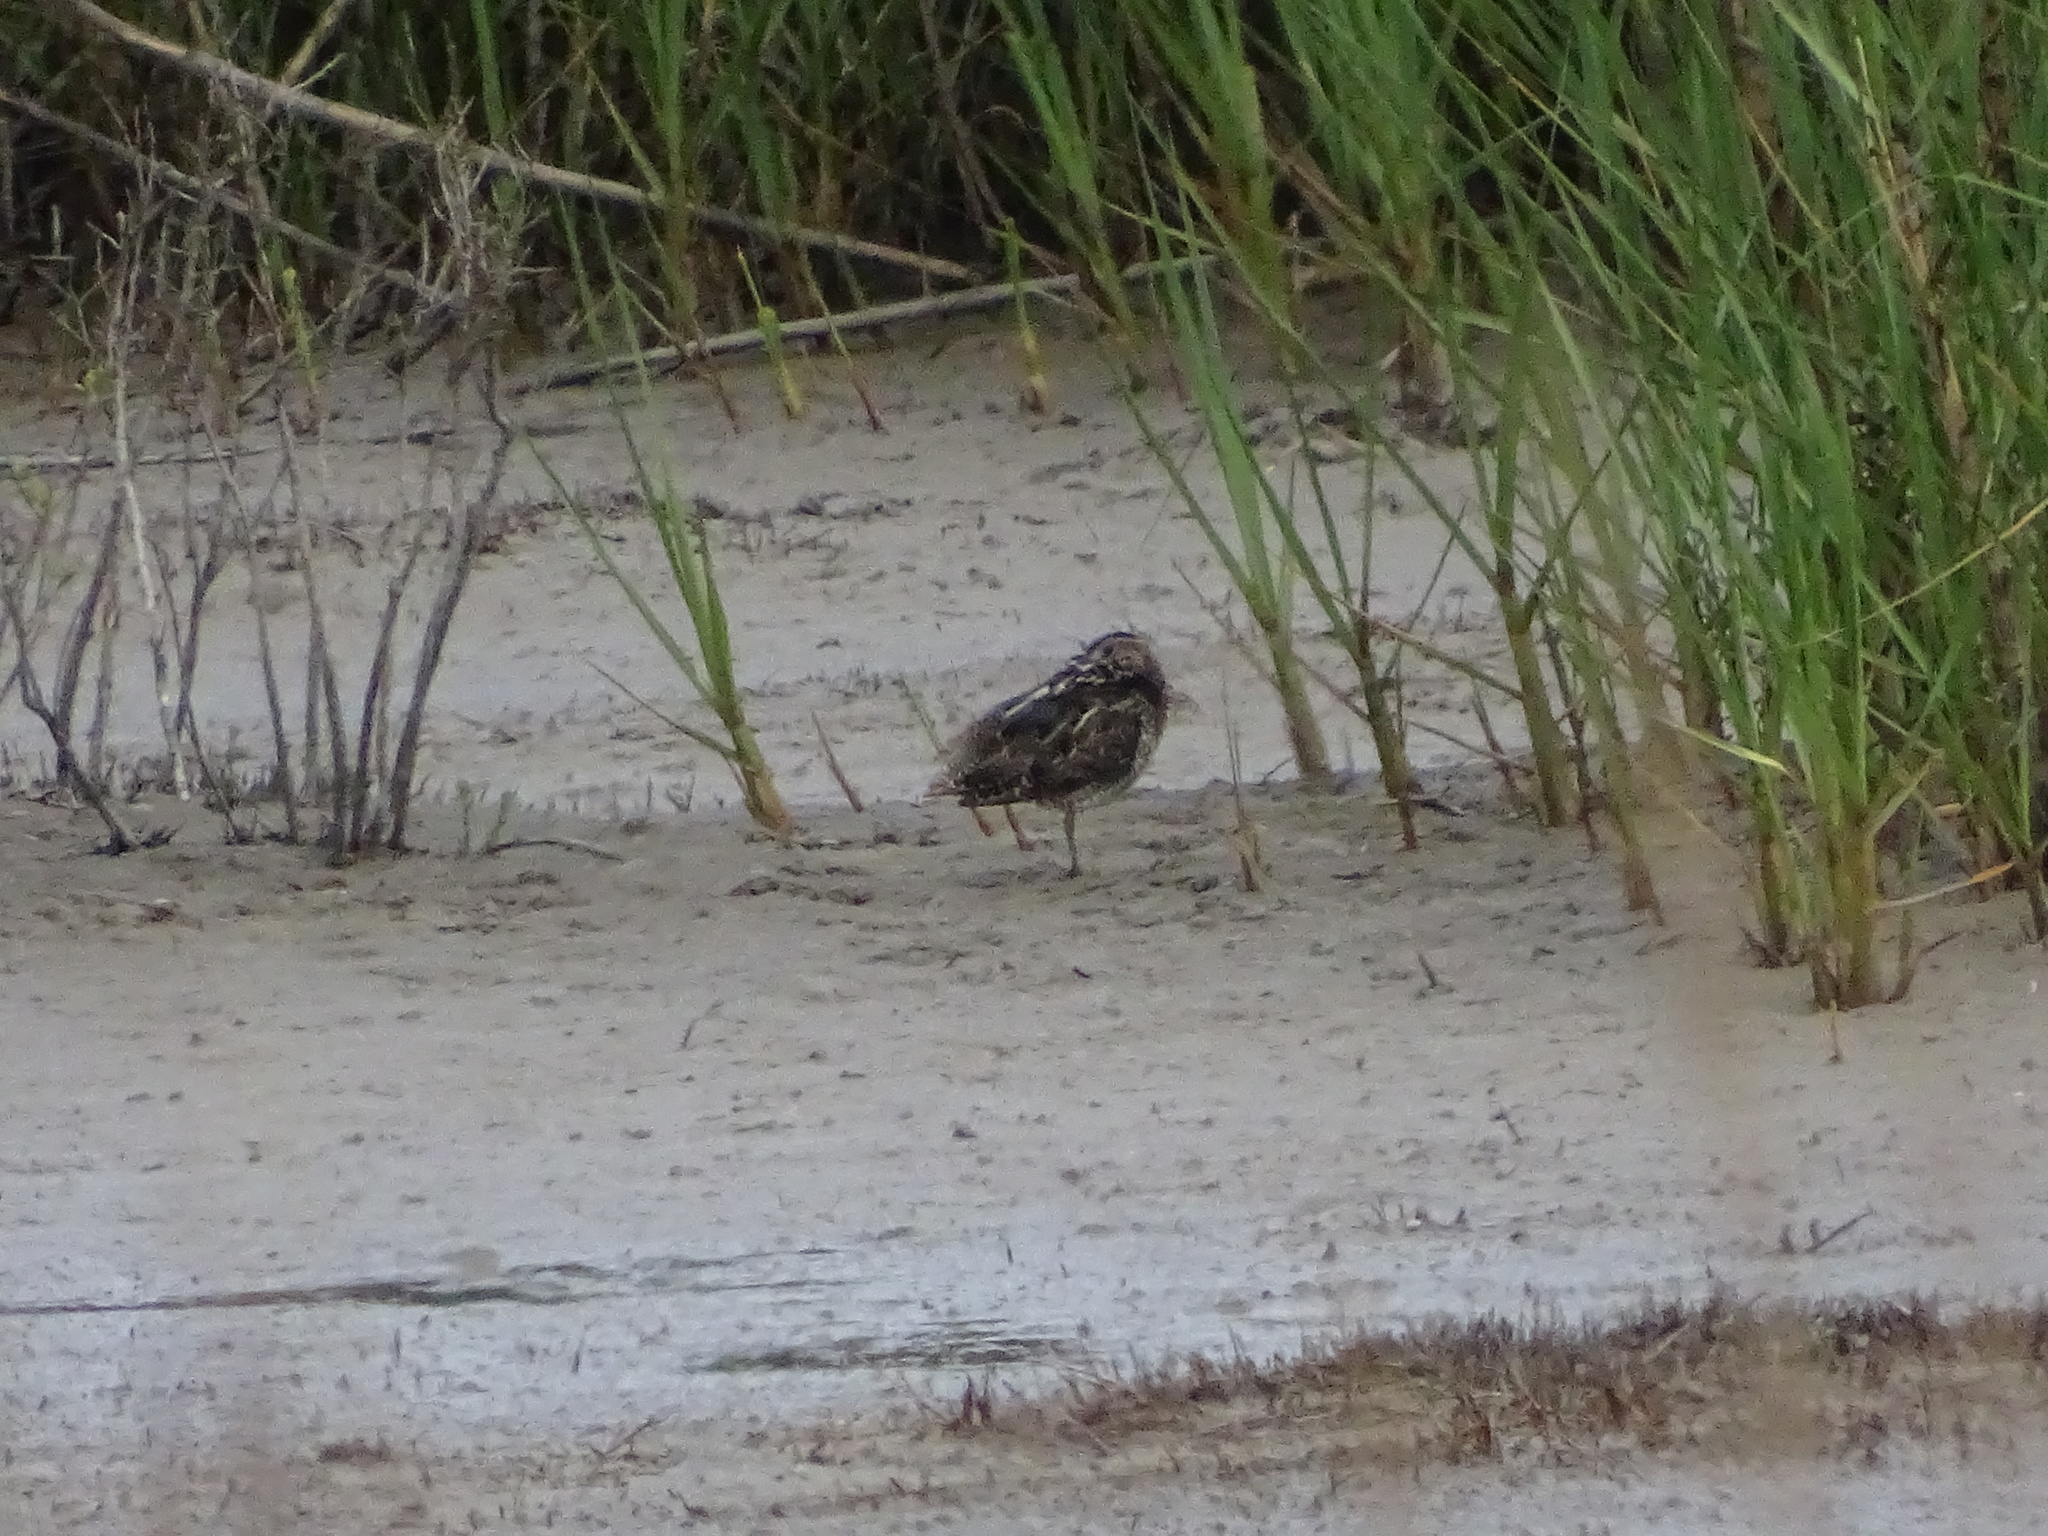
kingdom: Animalia
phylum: Chordata
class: Aves
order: Charadriiformes
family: Scolopacidae
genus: Gallinago
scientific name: Gallinago delicata
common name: Wilson's snipe
